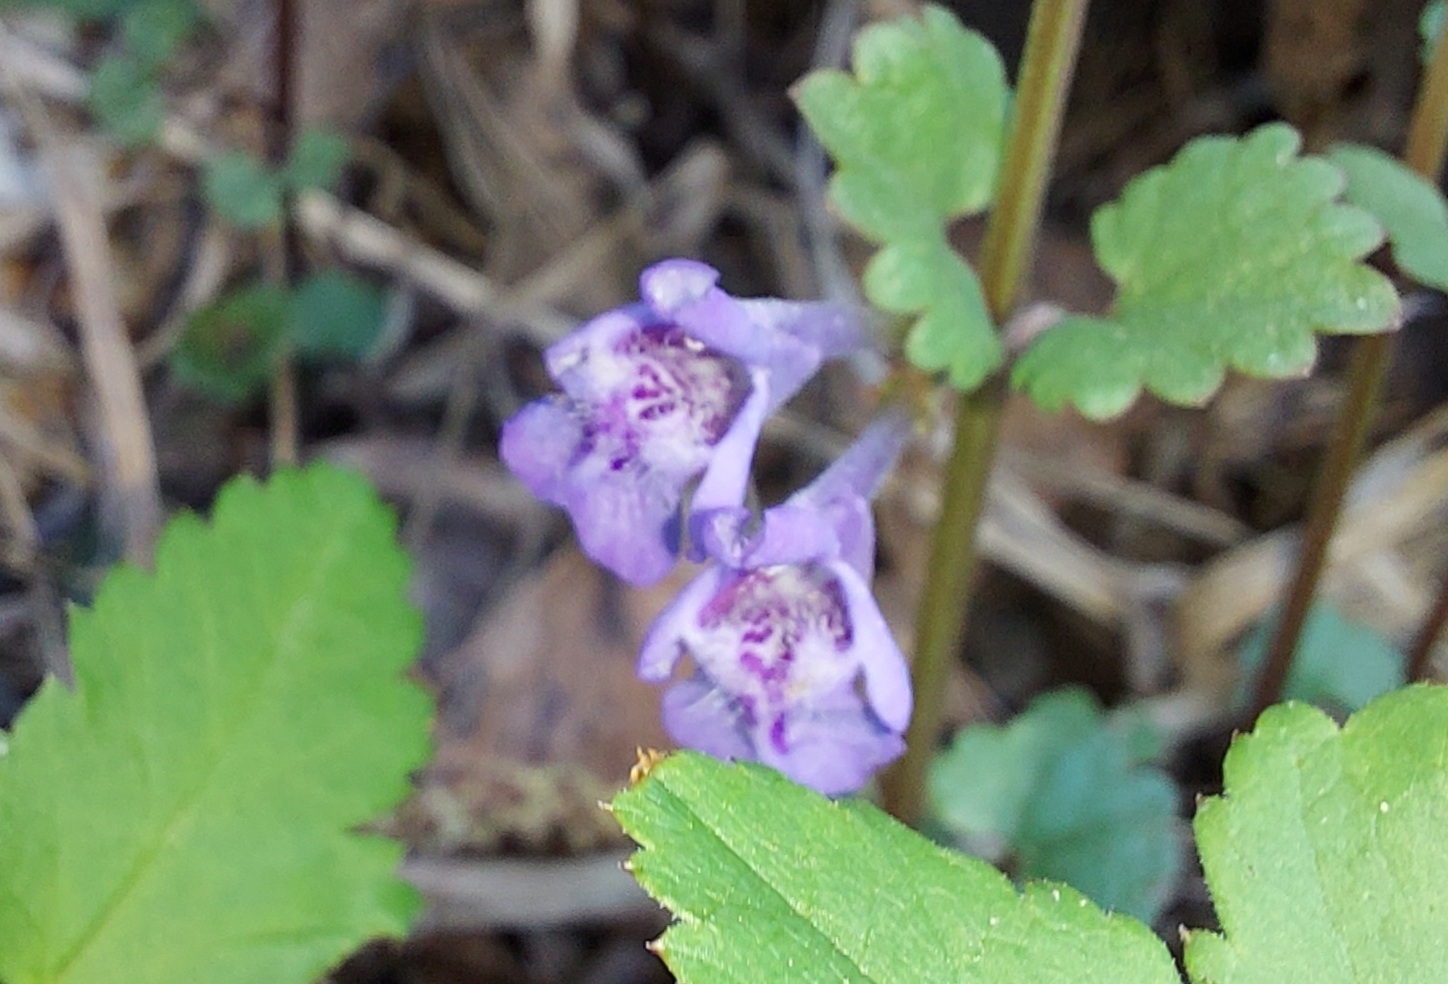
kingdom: Plantae
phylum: Tracheophyta
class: Magnoliopsida
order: Lamiales
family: Lamiaceae
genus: Glechoma
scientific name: Glechoma hederacea
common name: Ground ivy
